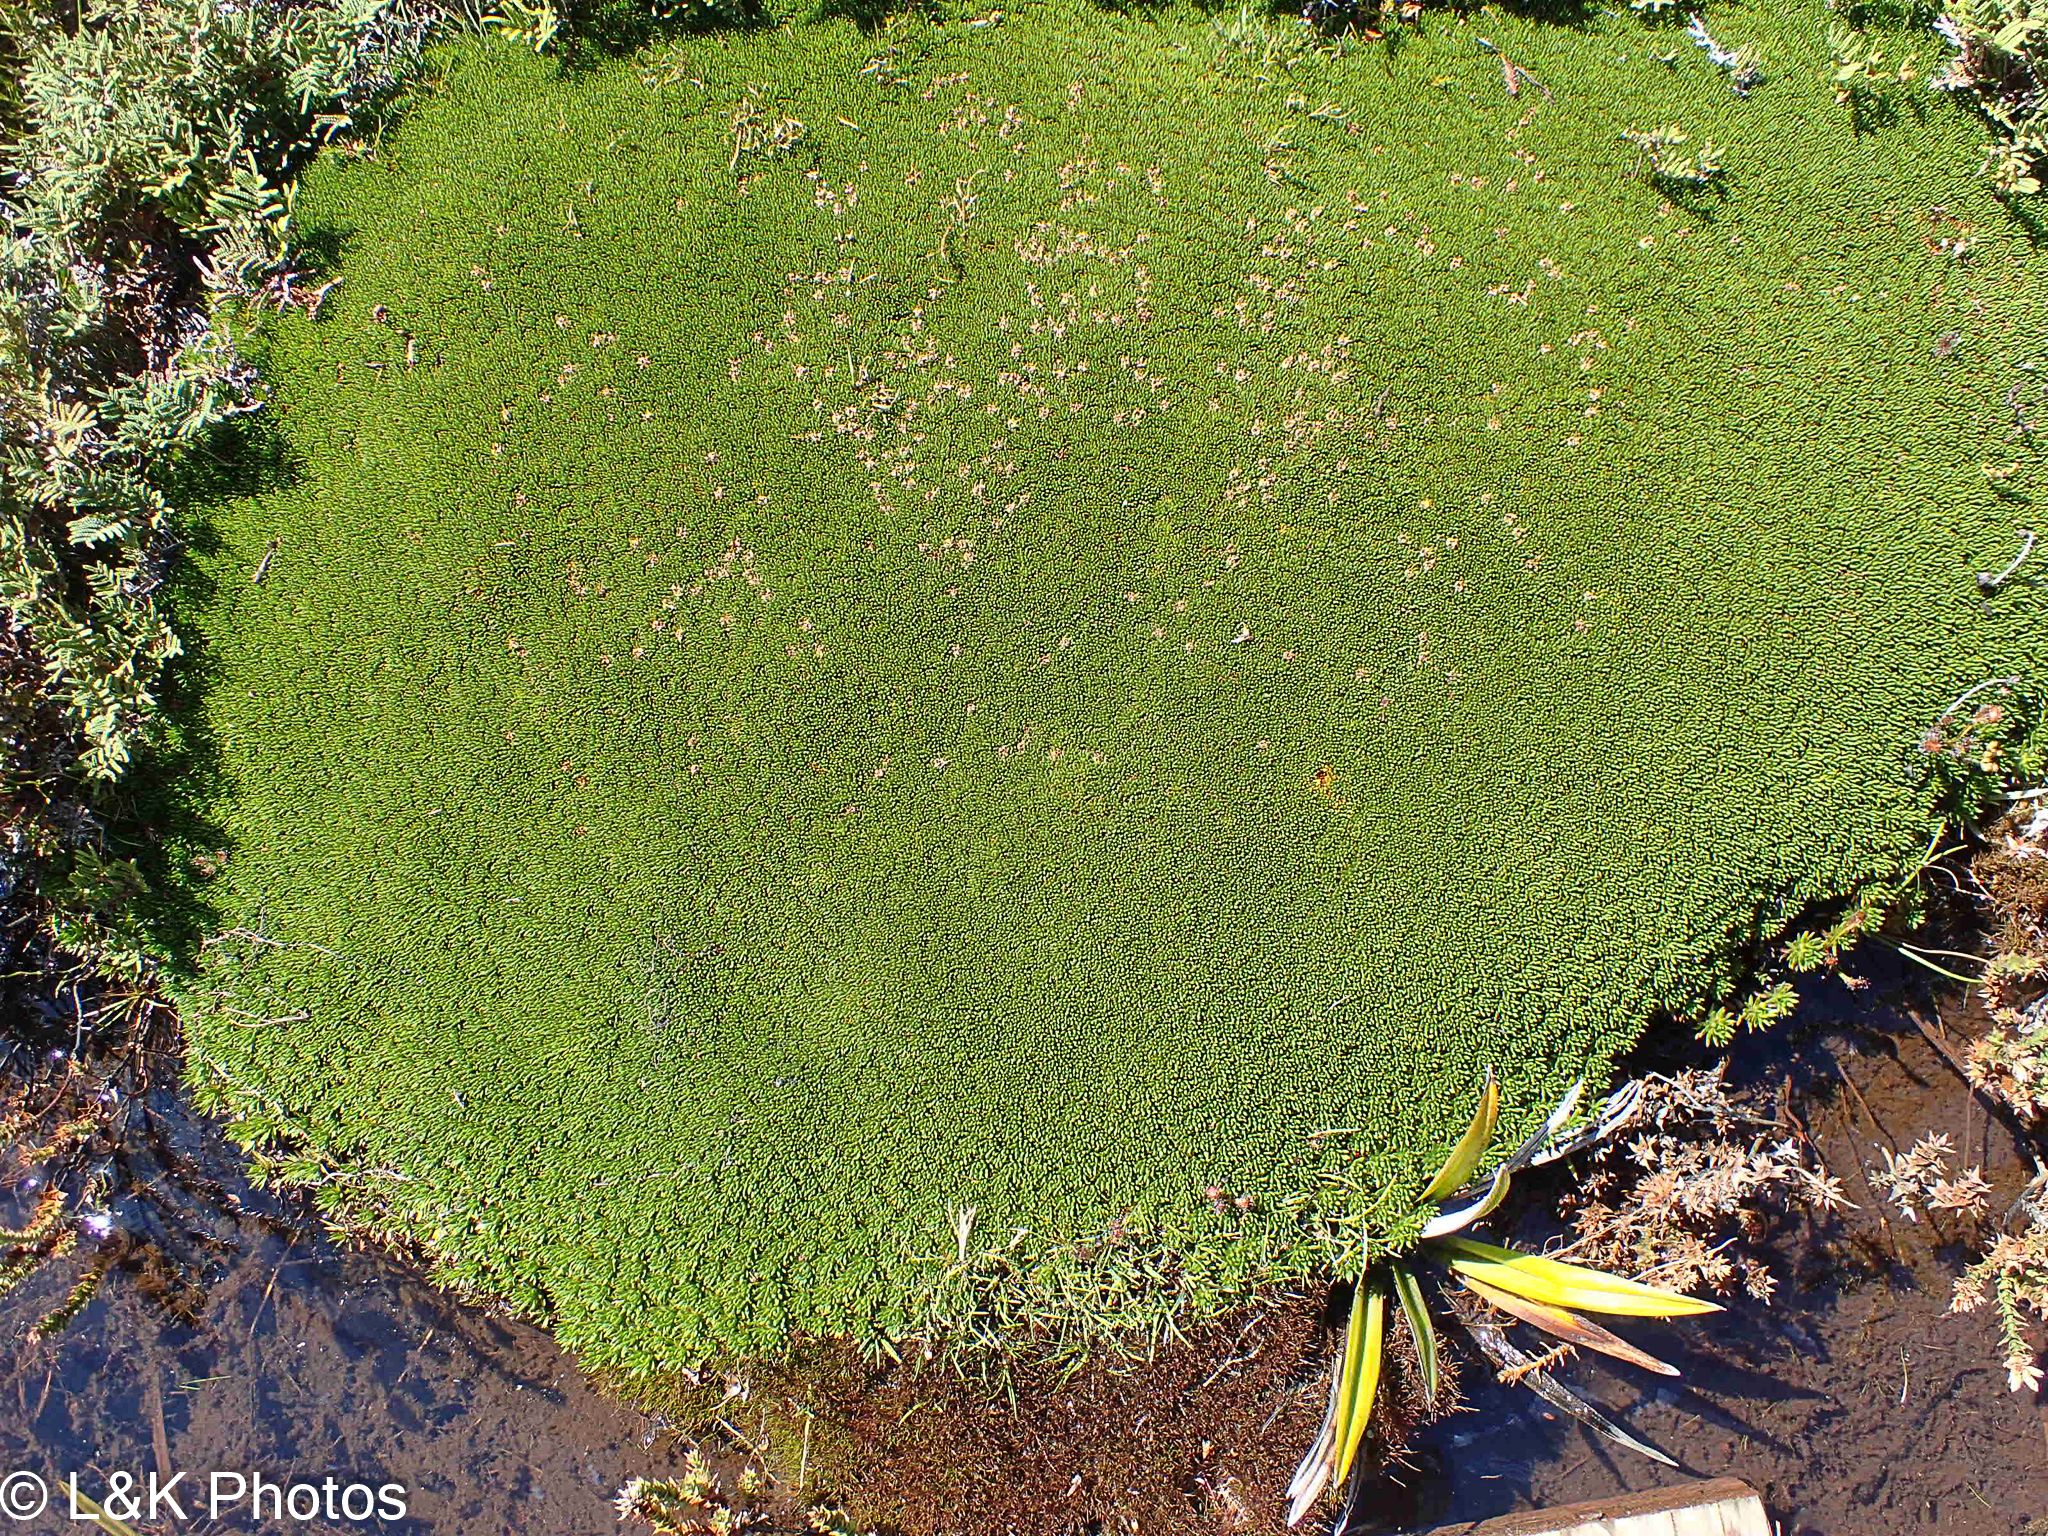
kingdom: Plantae
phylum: Tracheophyta
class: Magnoliopsida
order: Asterales
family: Stylidiaceae
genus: Donatia
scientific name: Donatia novae-zelandiae
